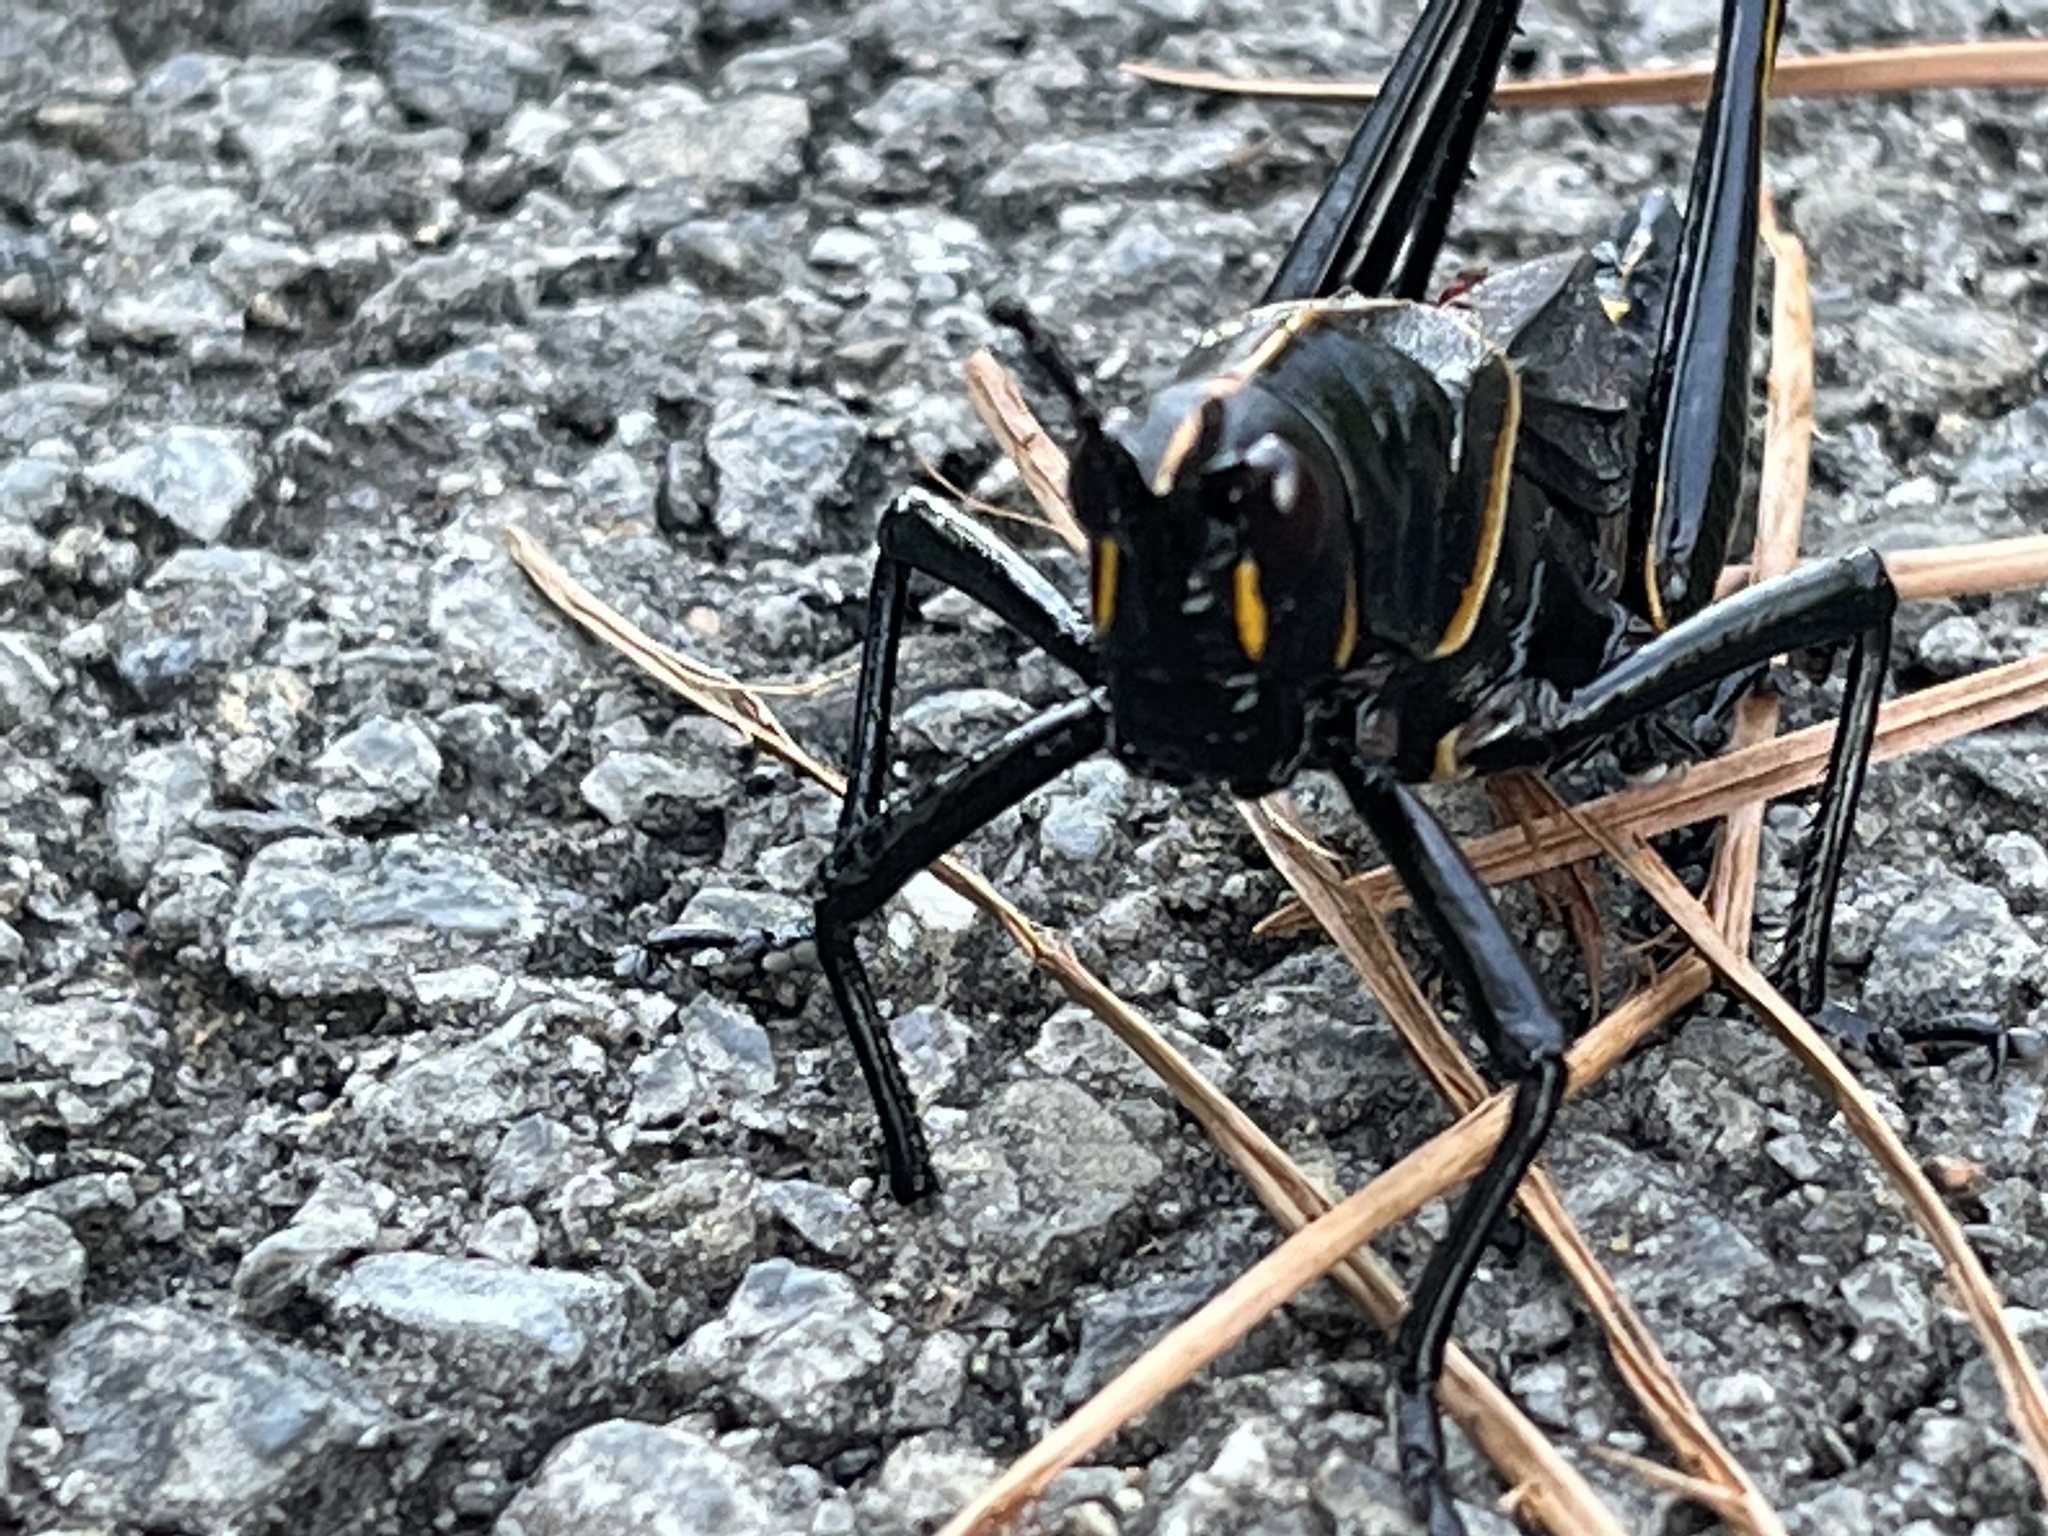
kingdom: Animalia
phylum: Arthropoda
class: Insecta
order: Orthoptera
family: Romaleidae
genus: Romalea
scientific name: Romalea microptera
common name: Eastern lubber grasshopper
